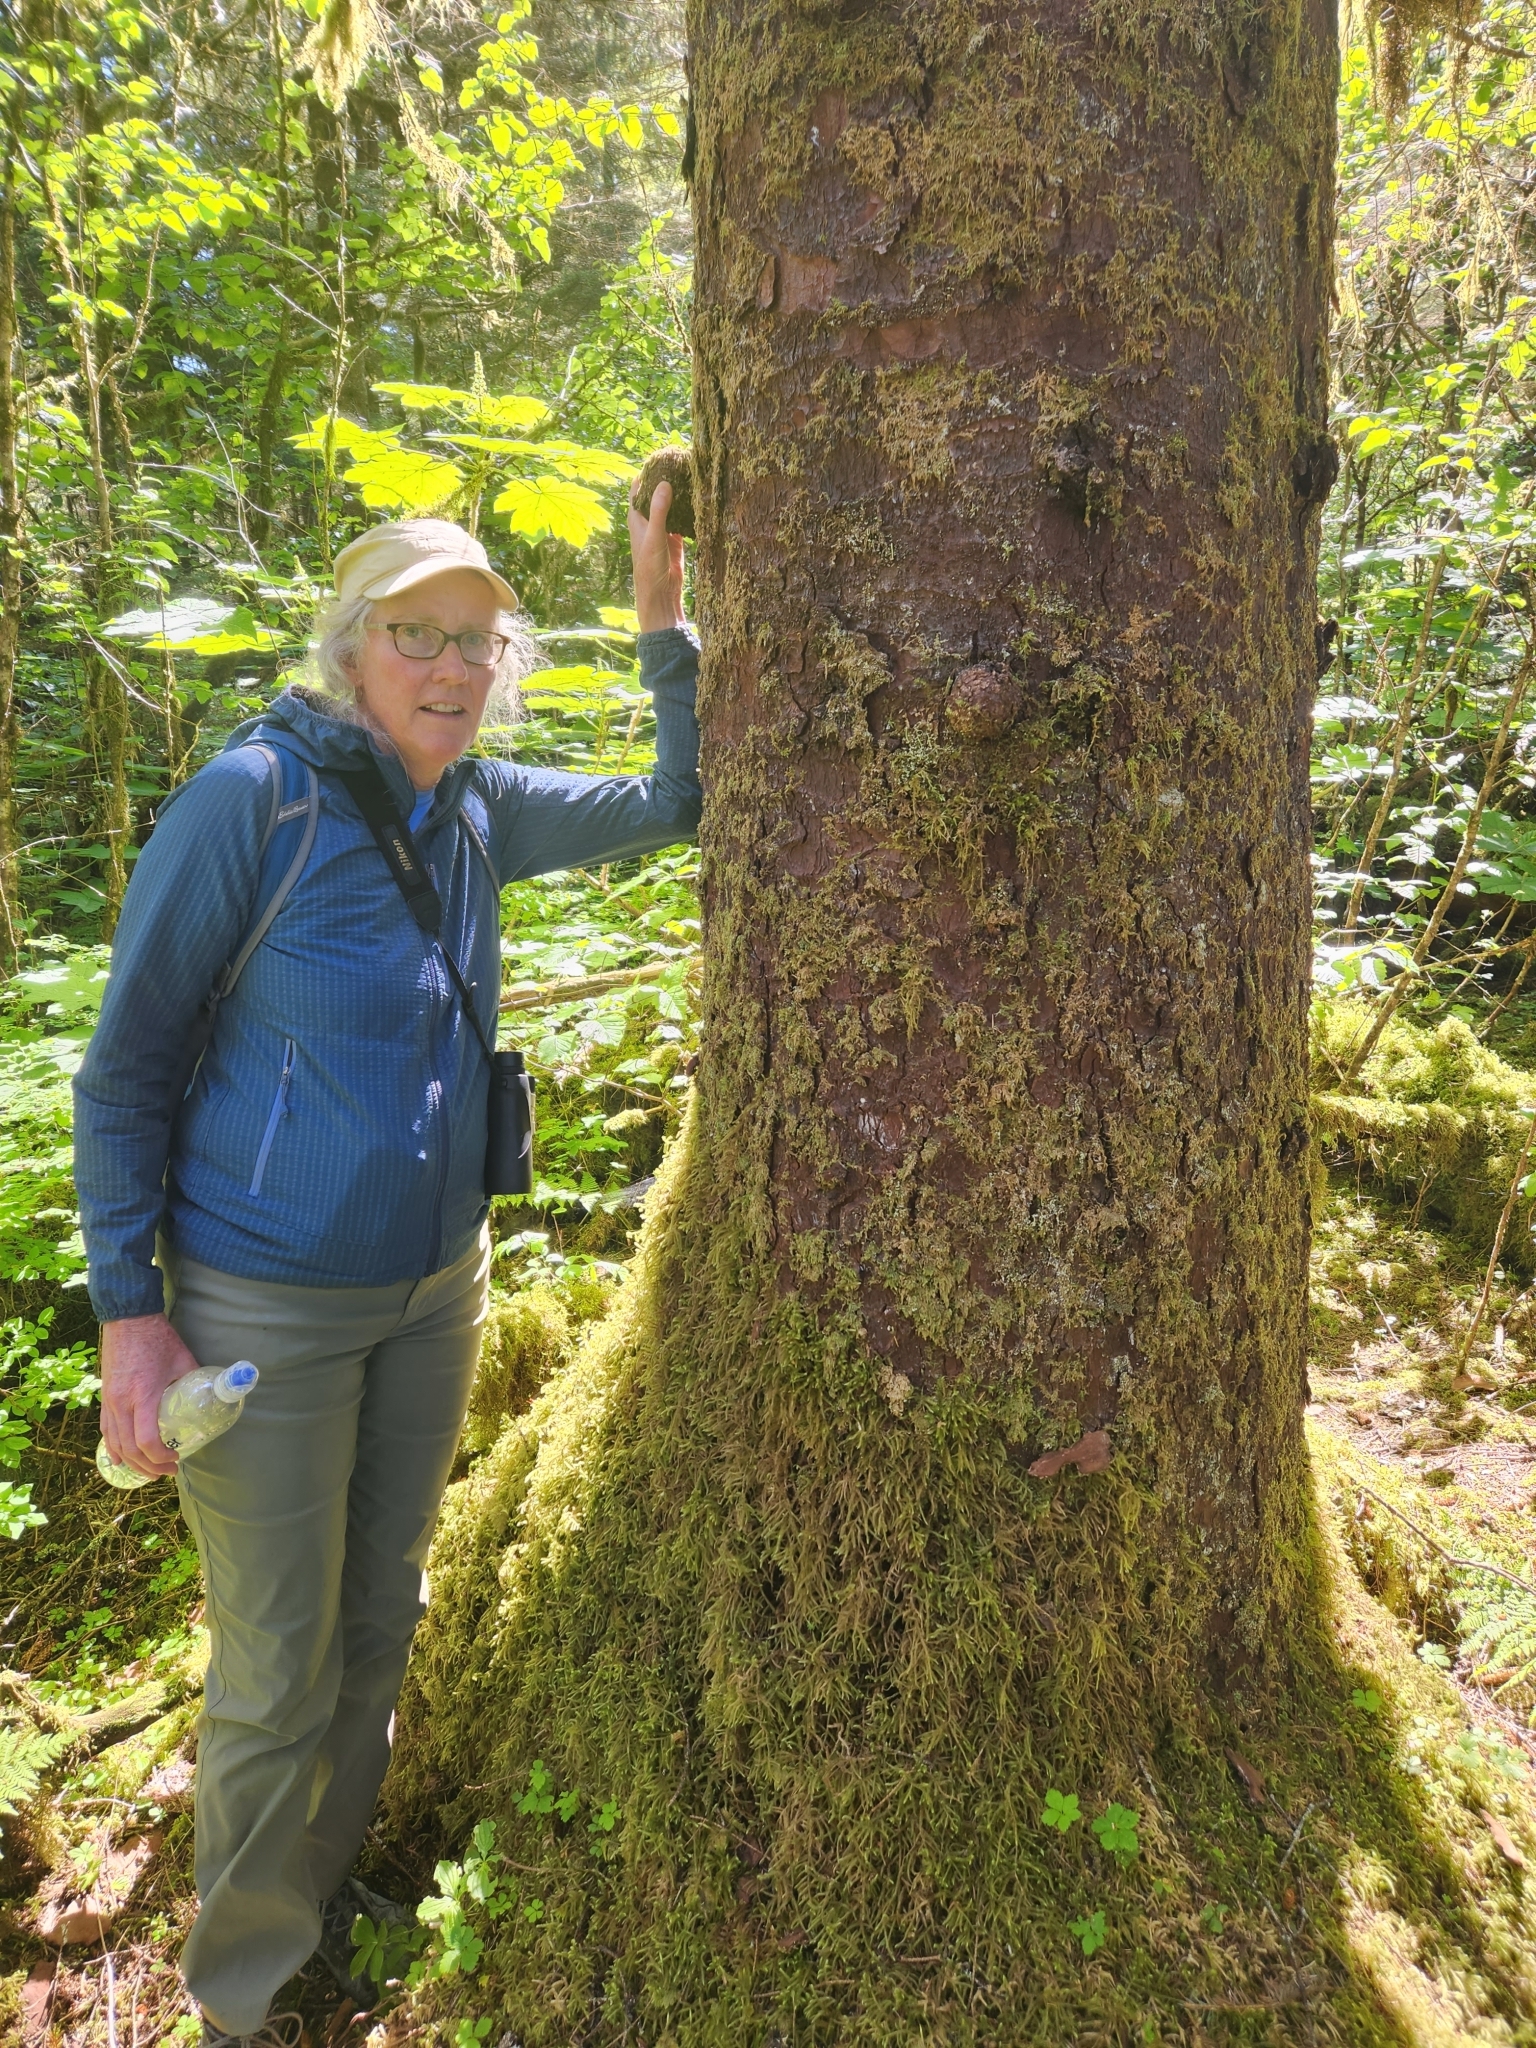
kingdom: Plantae
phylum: Tracheophyta
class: Pinopsida
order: Pinales
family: Pinaceae
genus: Picea
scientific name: Picea sitchensis
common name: Sitka spruce
